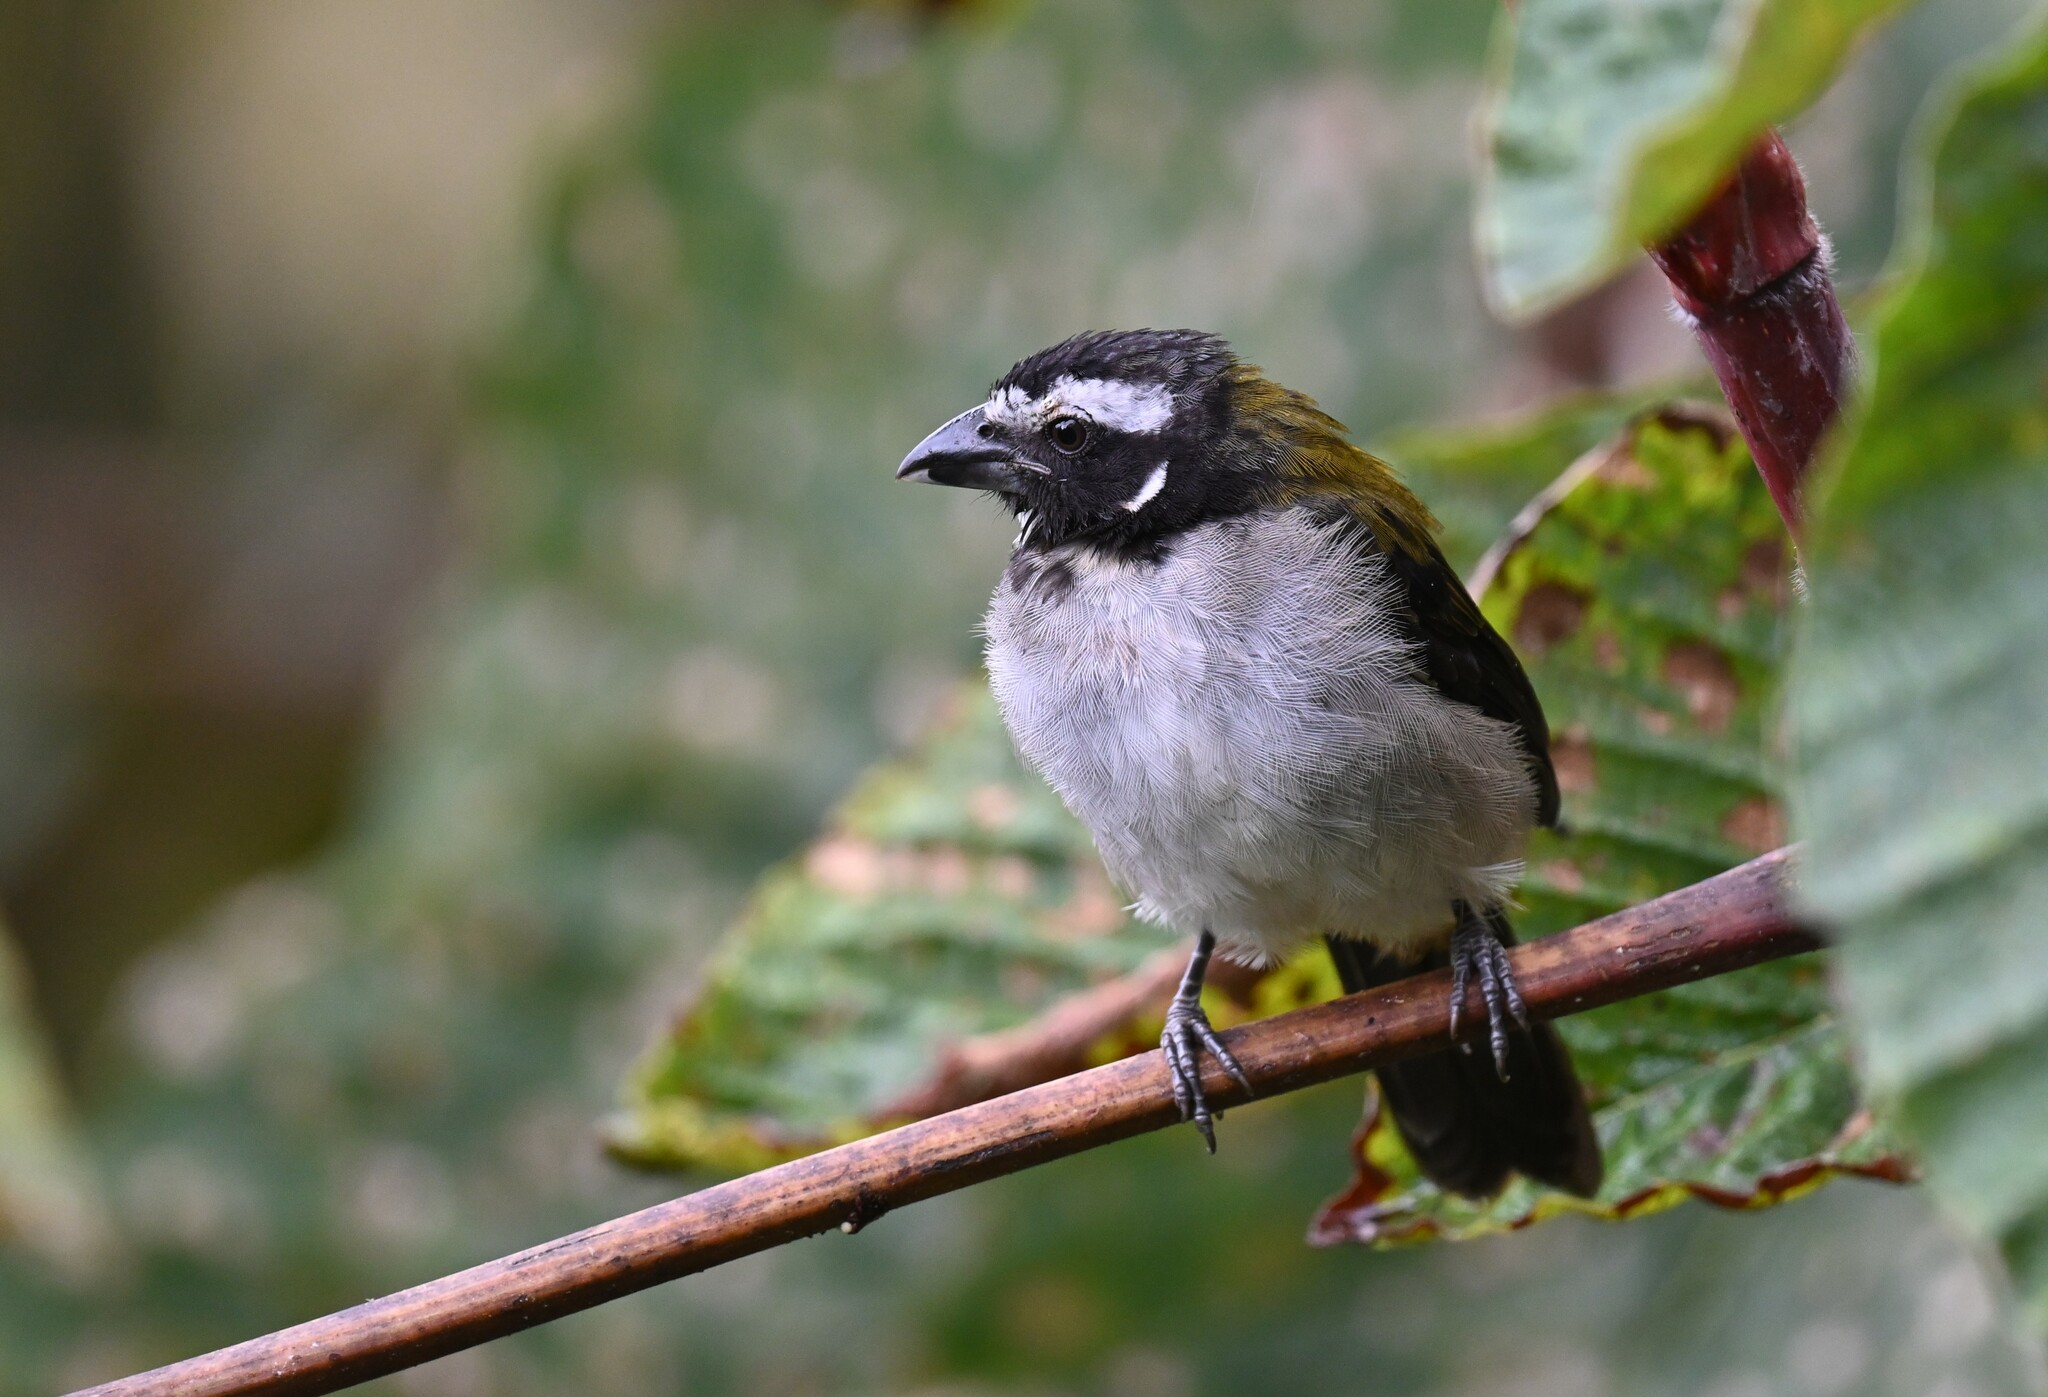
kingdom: Animalia
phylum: Chordata
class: Aves
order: Passeriformes
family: Thraupidae
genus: Saltator
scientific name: Saltator atripennis
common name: Black-winged saltator
